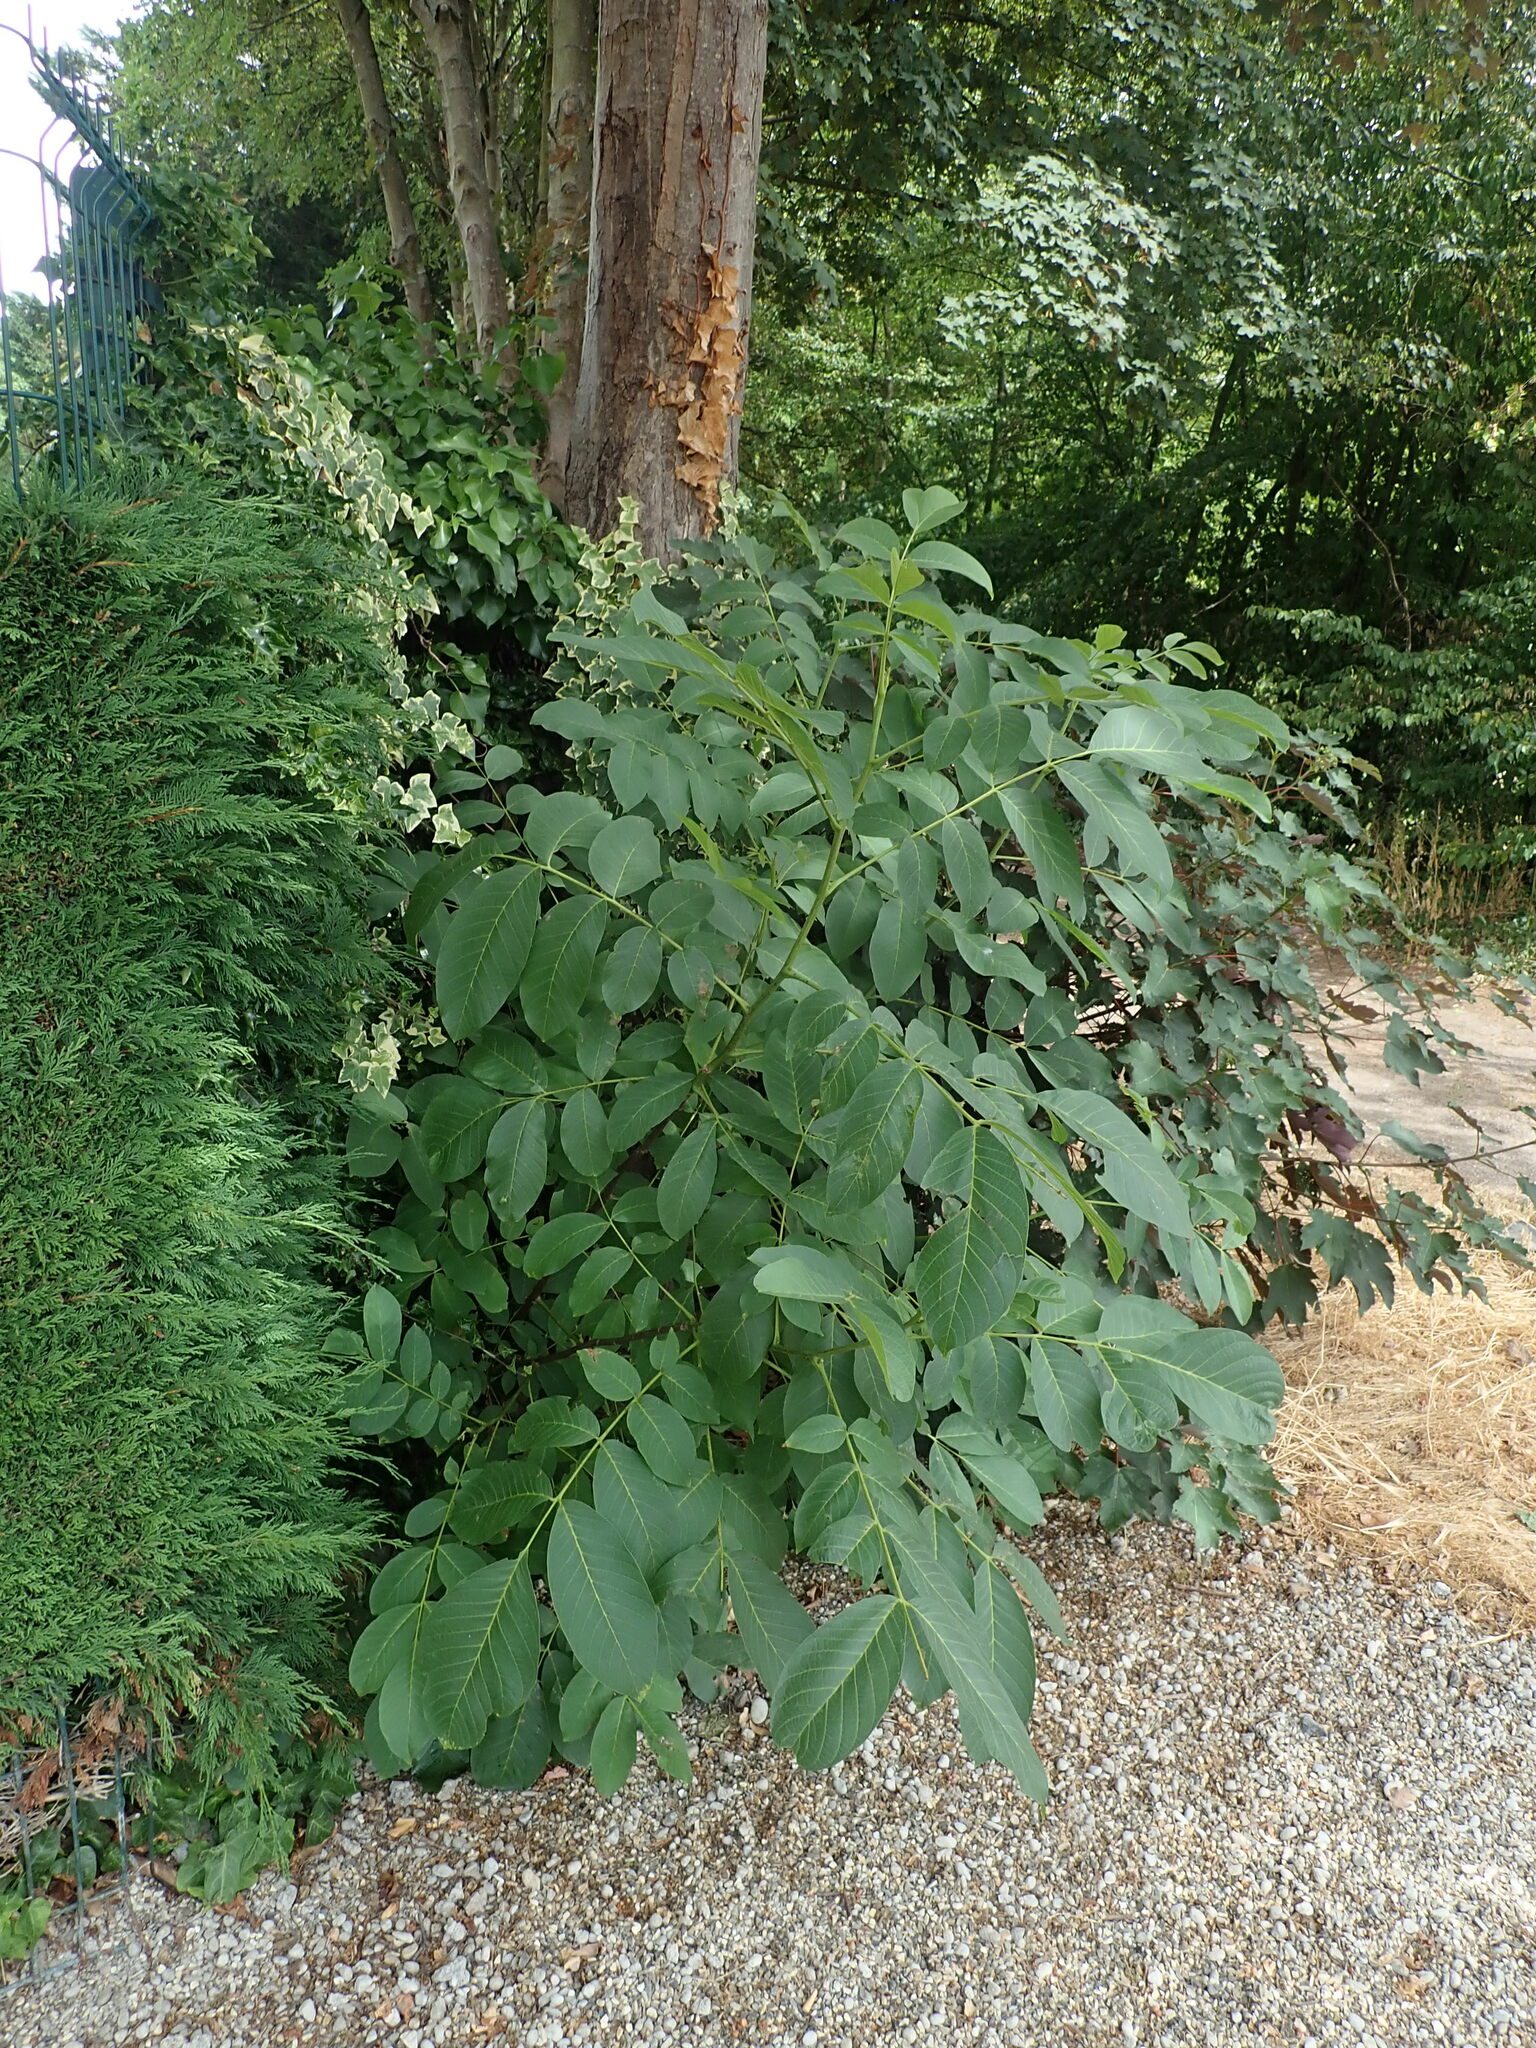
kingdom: Plantae
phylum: Tracheophyta
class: Magnoliopsida
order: Fagales
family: Juglandaceae
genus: Juglans
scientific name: Juglans regia
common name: Walnut
